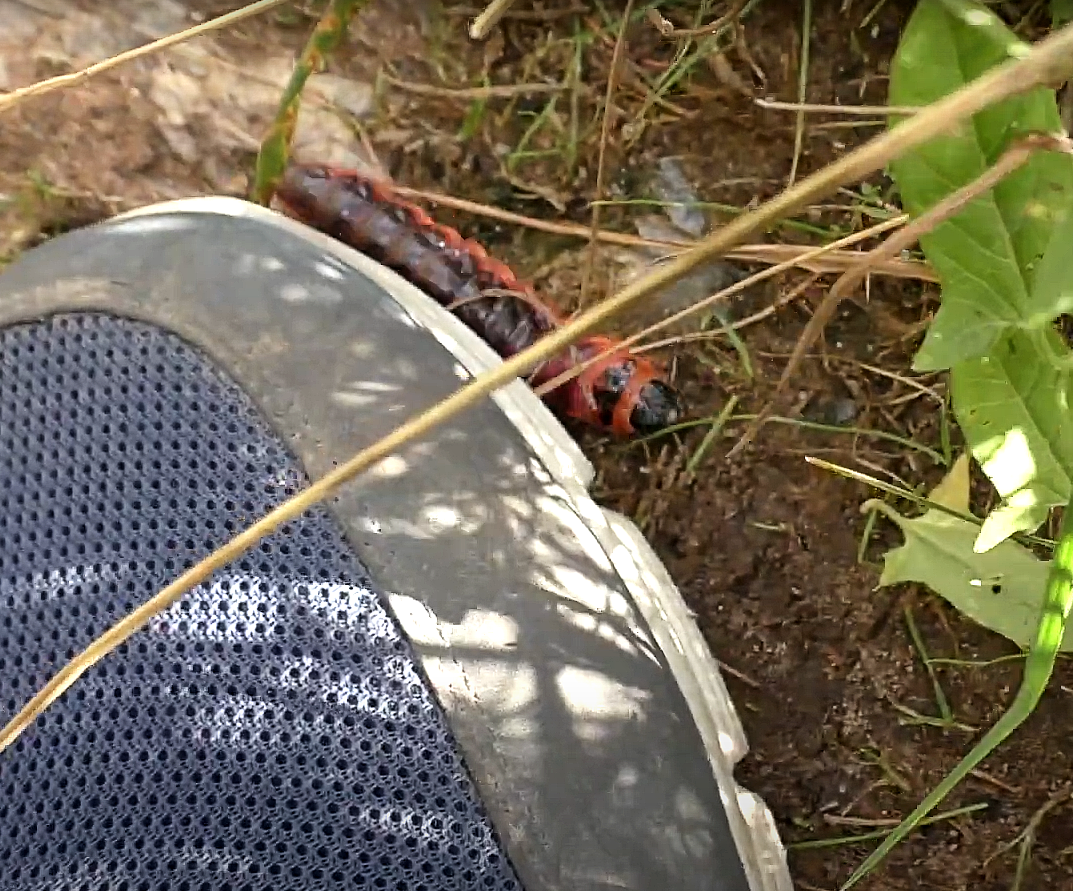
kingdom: Animalia
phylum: Arthropoda
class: Insecta
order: Lepidoptera
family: Cossidae
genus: Cossus
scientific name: Cossus cossus
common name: Goat moth
